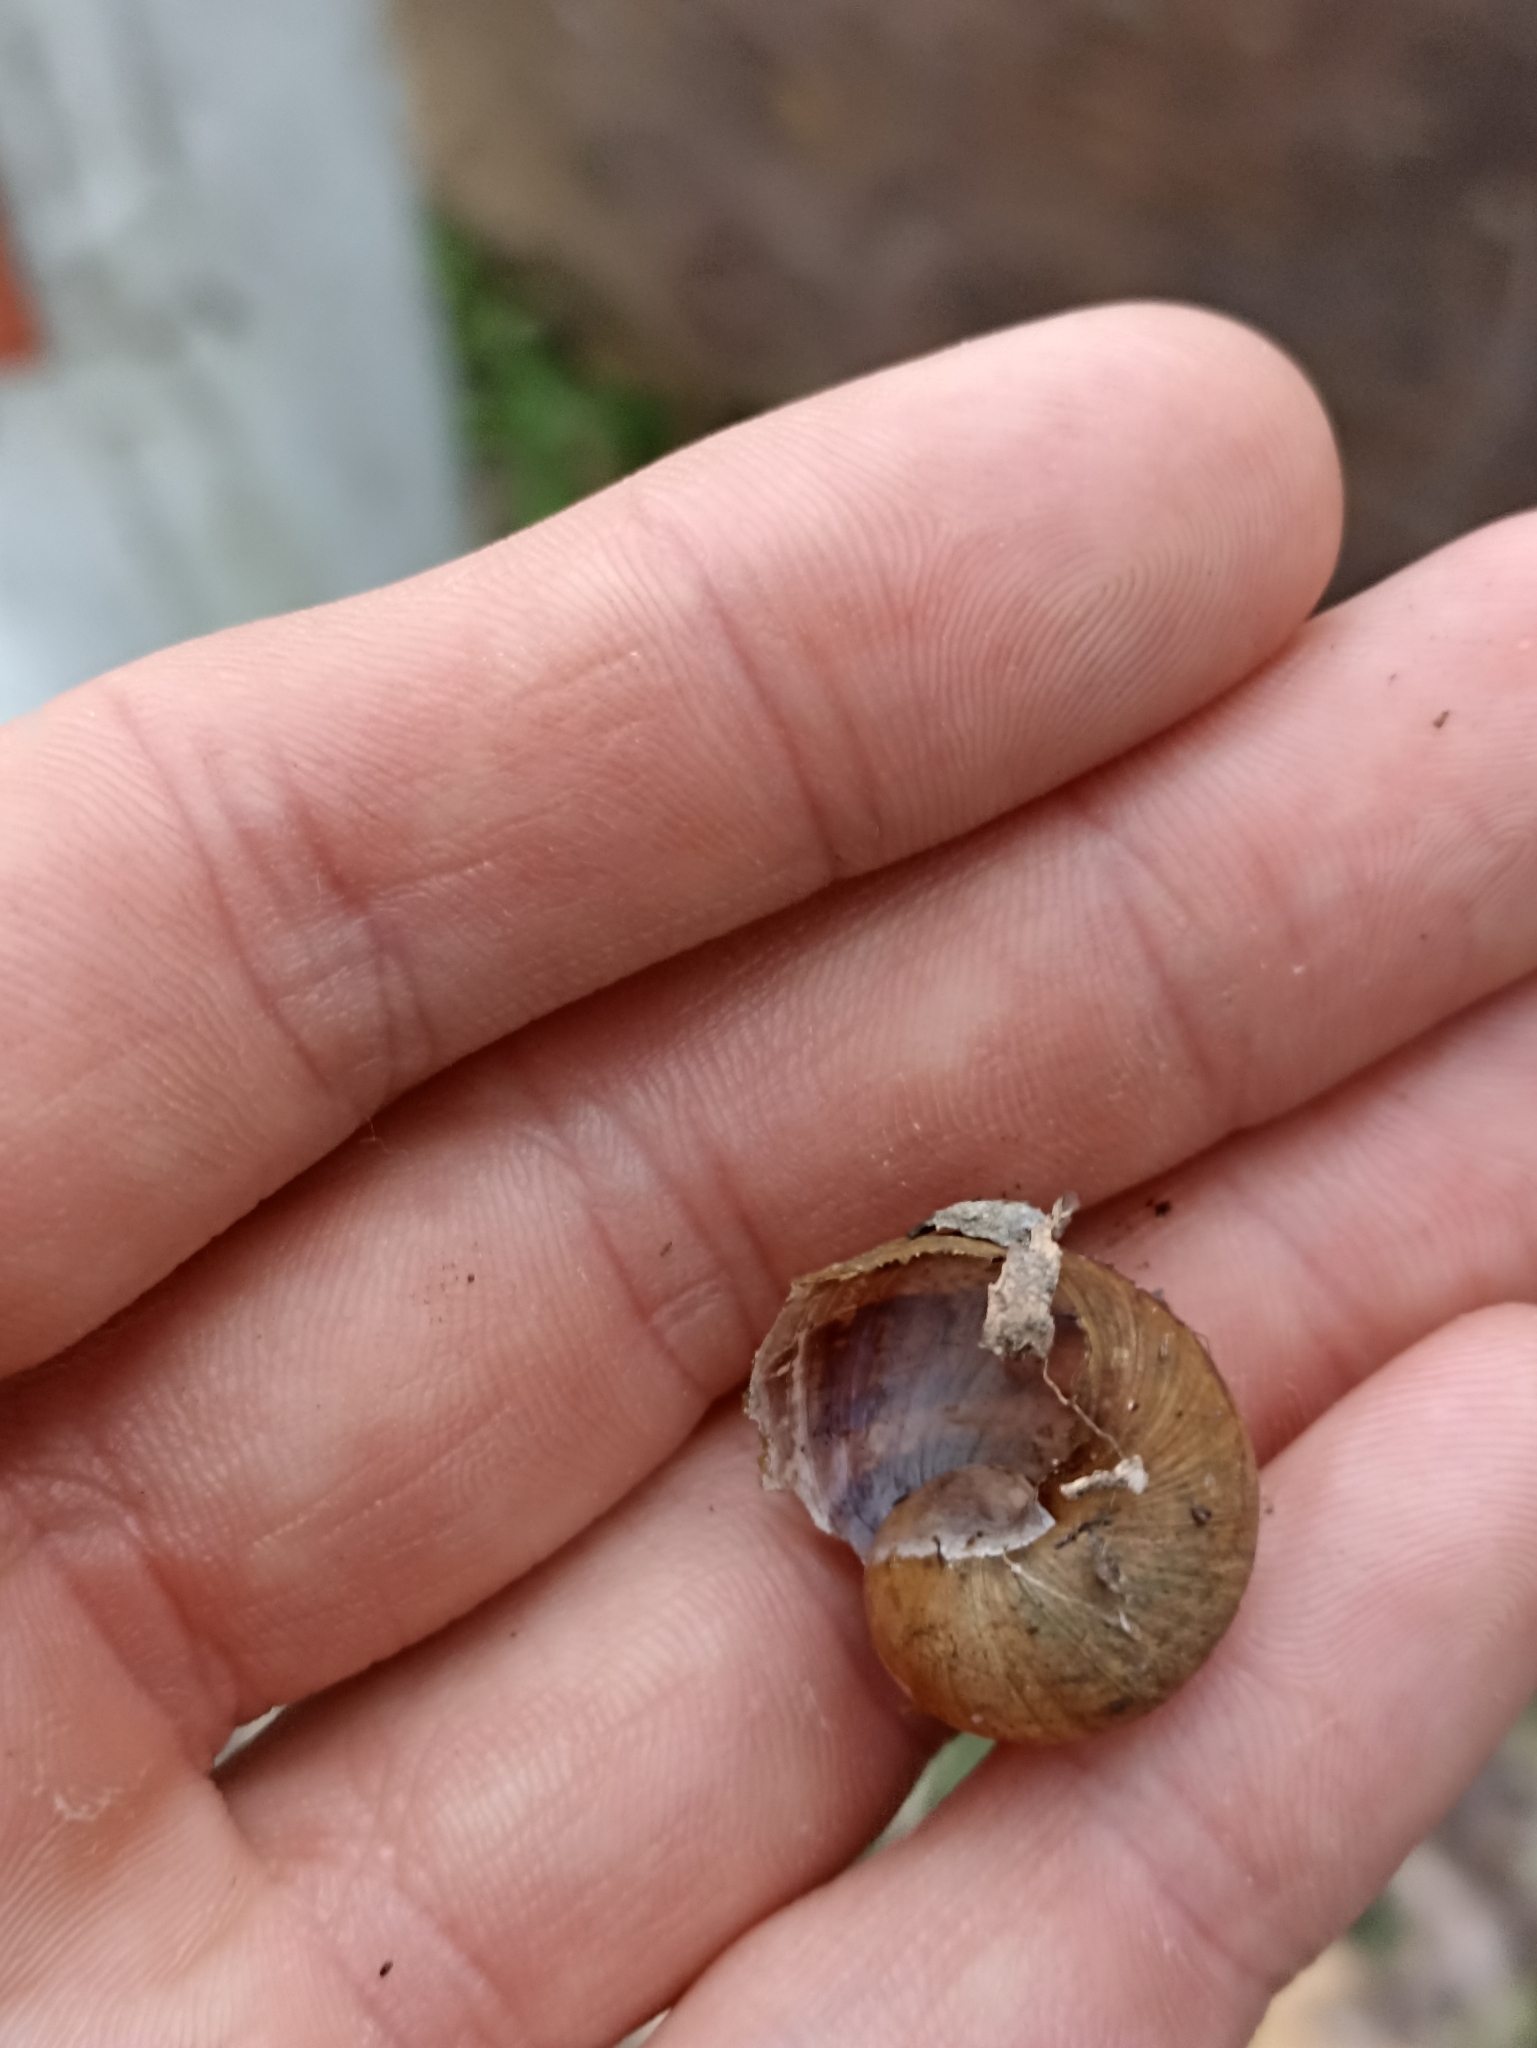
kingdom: Animalia
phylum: Mollusca
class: Gastropoda
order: Stylommatophora
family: Helicidae
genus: Cornu
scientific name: Cornu aspersum
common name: Brown garden snail
